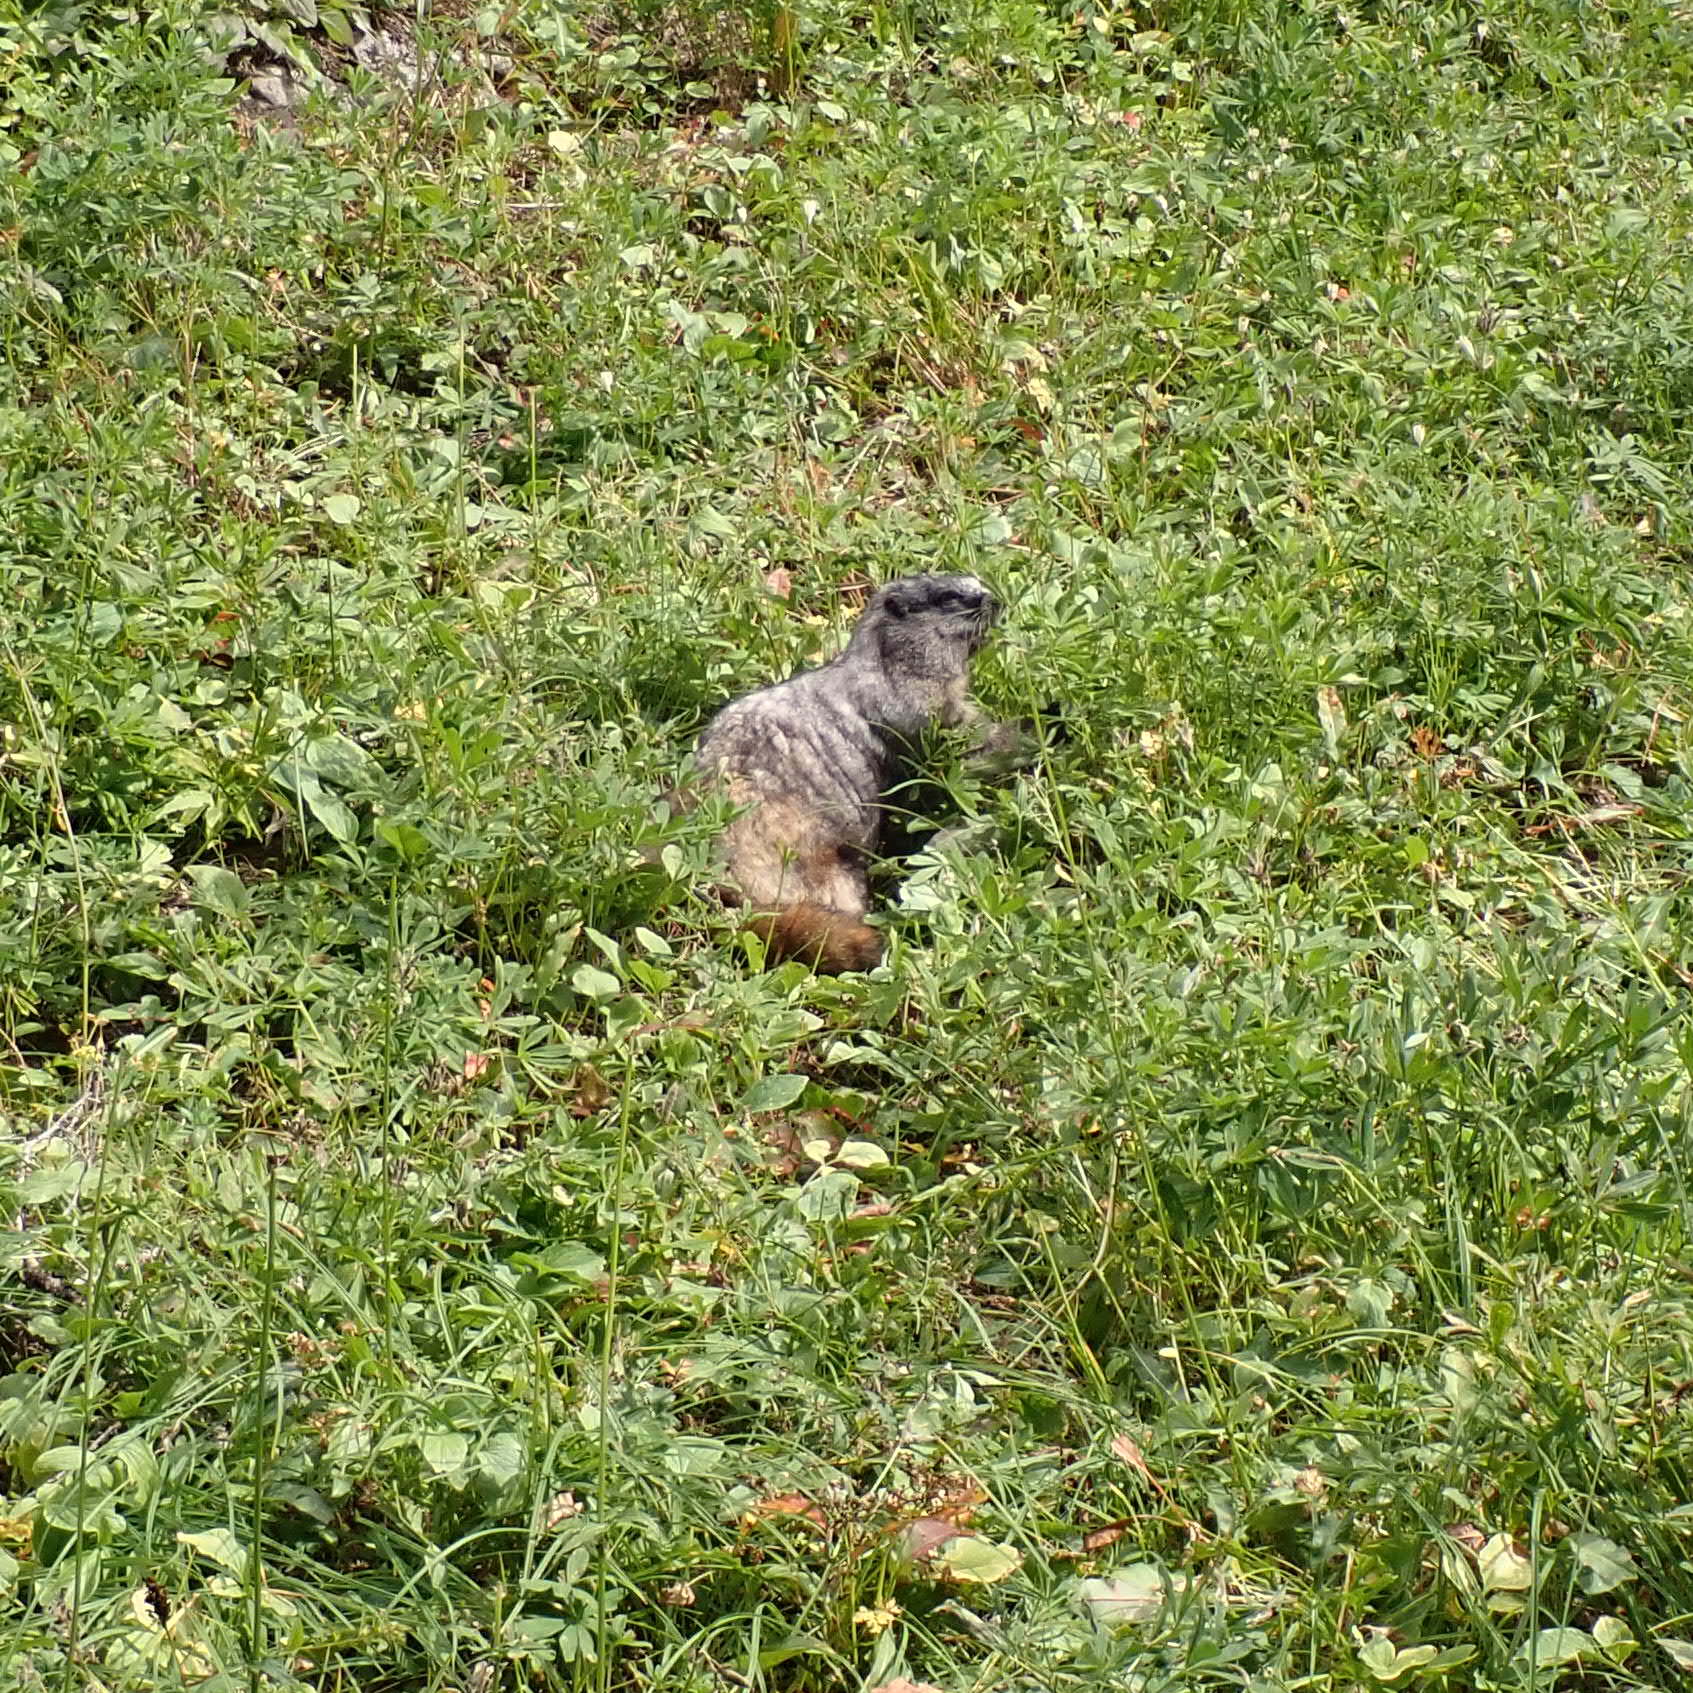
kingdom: Animalia
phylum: Chordata
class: Mammalia
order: Rodentia
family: Sciuridae
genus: Marmota
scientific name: Marmota caligata
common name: Hoary marmot
